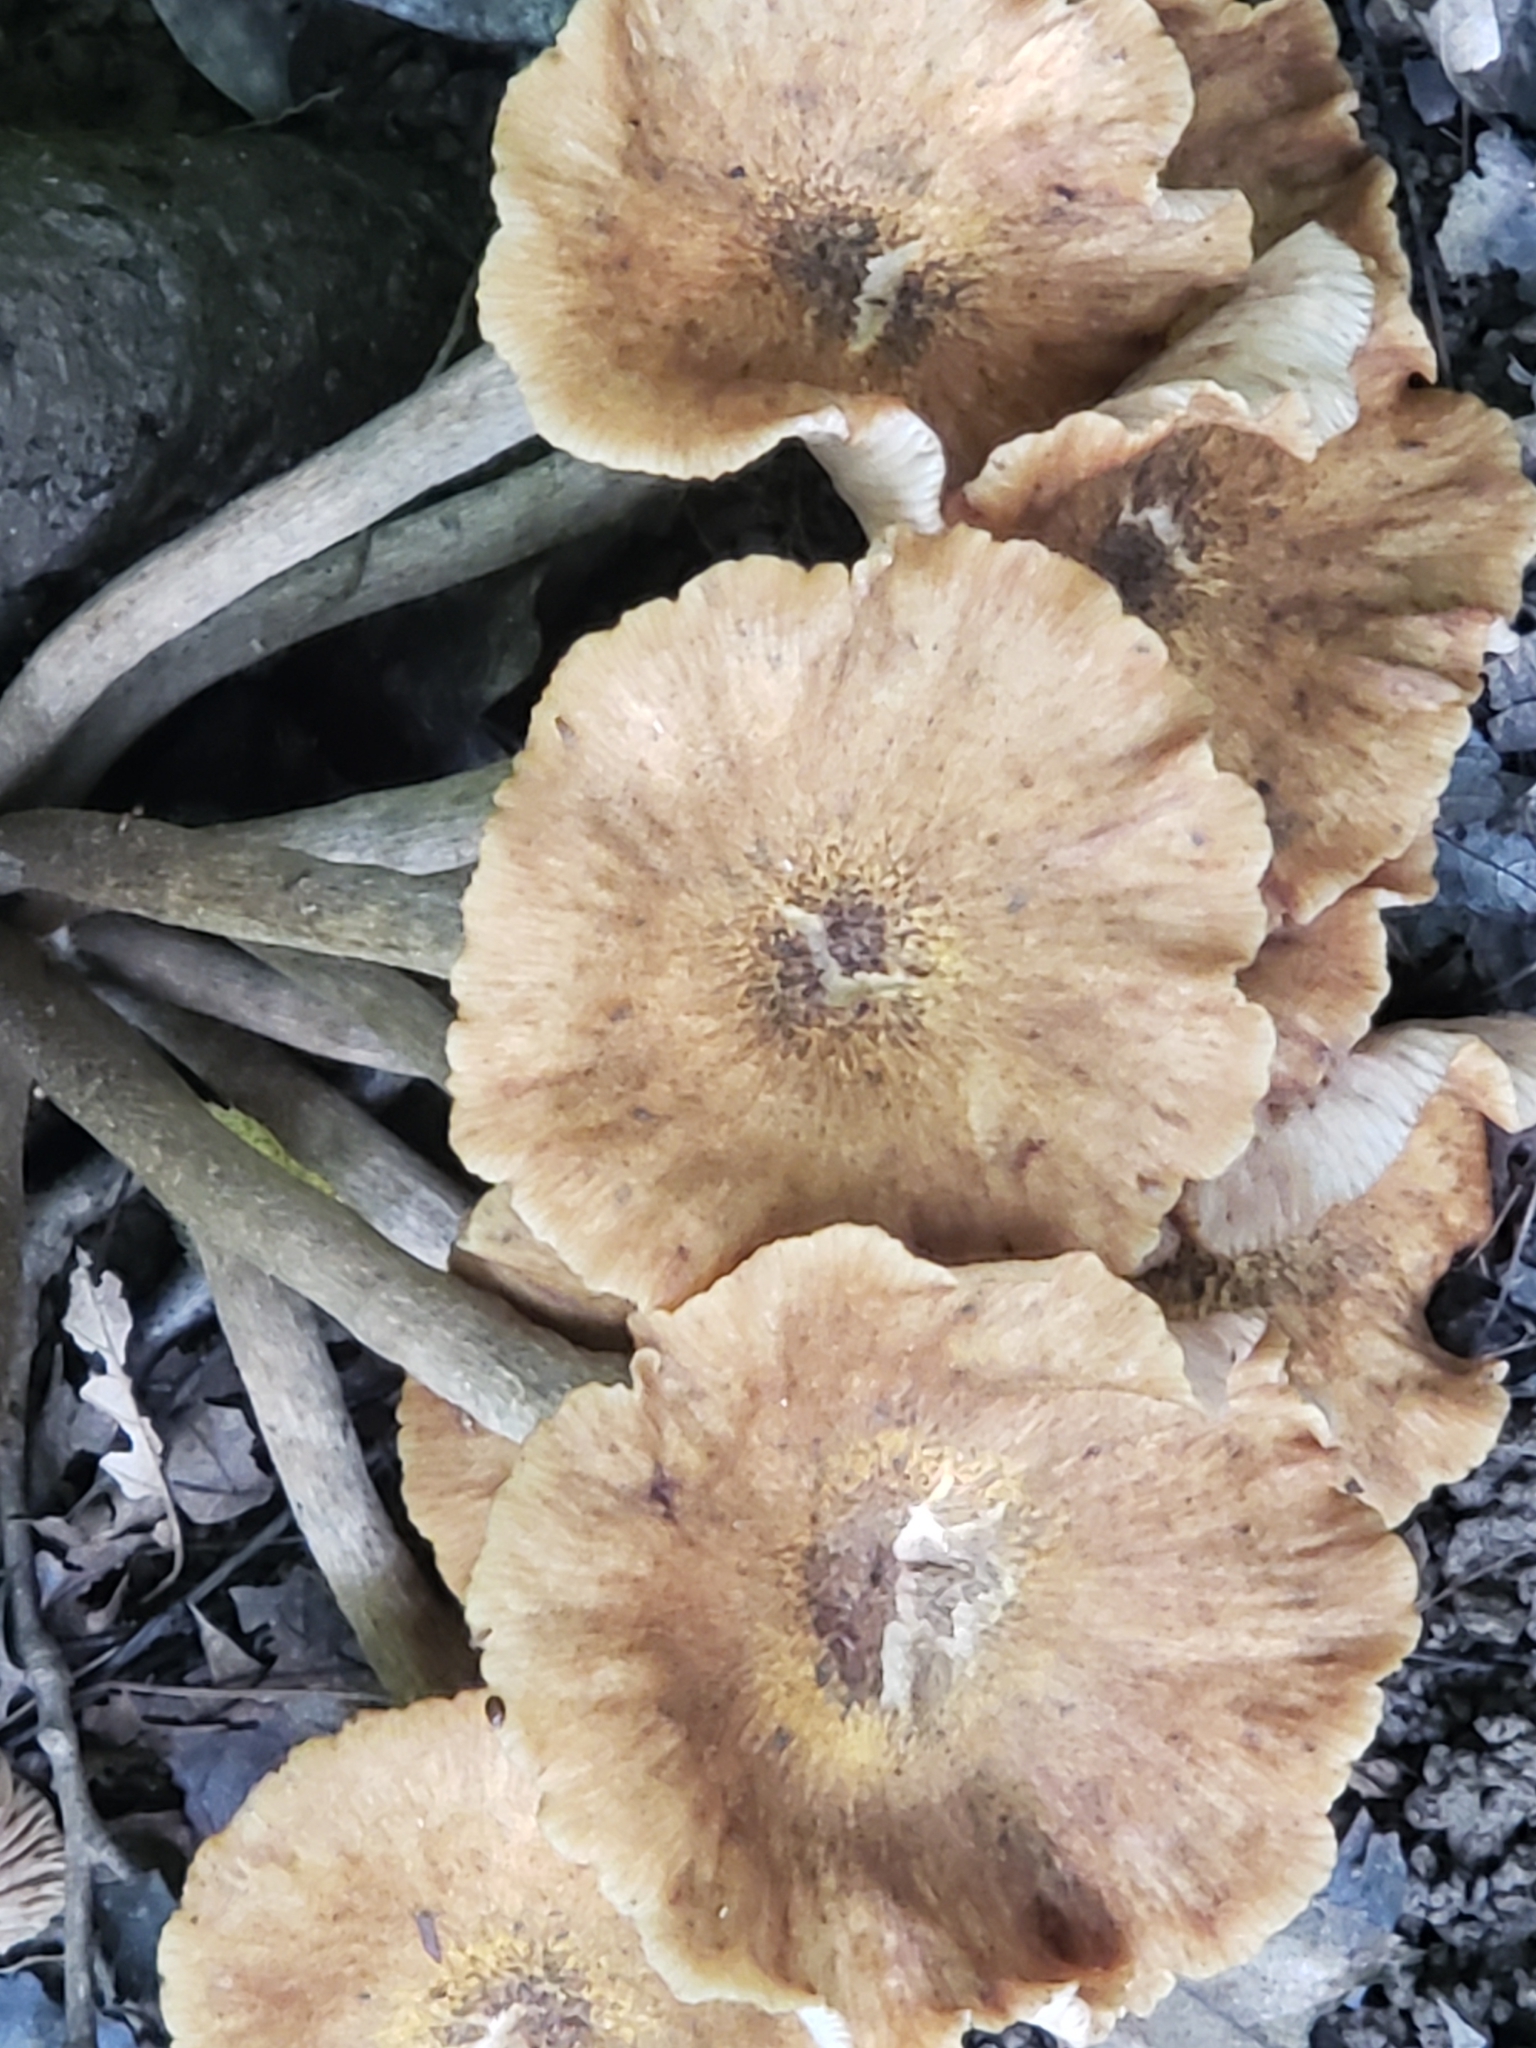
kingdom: Fungi
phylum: Basidiomycota
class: Agaricomycetes
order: Agaricales
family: Physalacriaceae
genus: Desarmillaria
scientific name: Desarmillaria caespitosa
